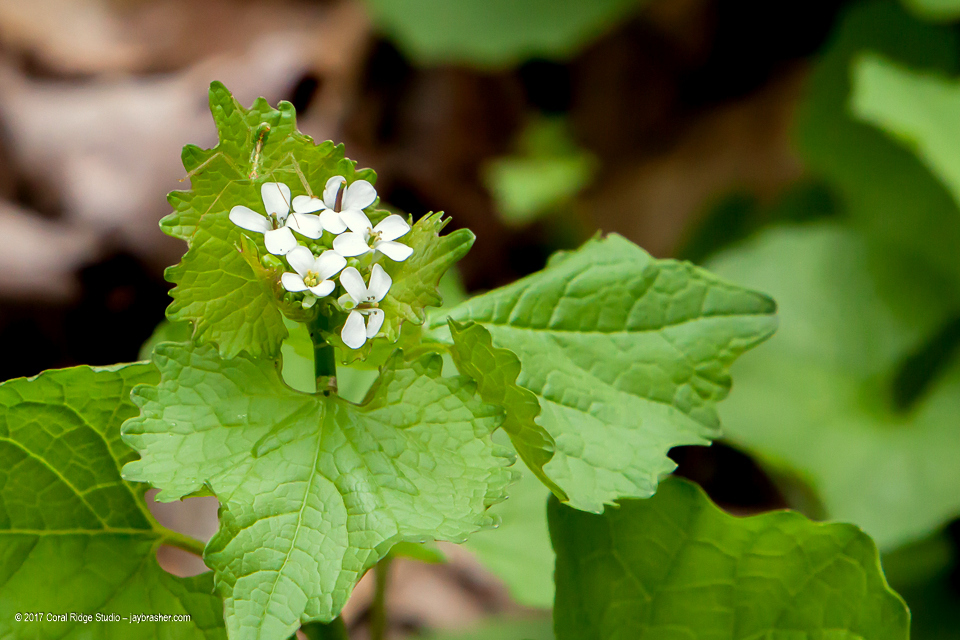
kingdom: Plantae
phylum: Tracheophyta
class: Magnoliopsida
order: Brassicales
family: Brassicaceae
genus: Alliaria
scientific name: Alliaria petiolata
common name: Garlic mustard
